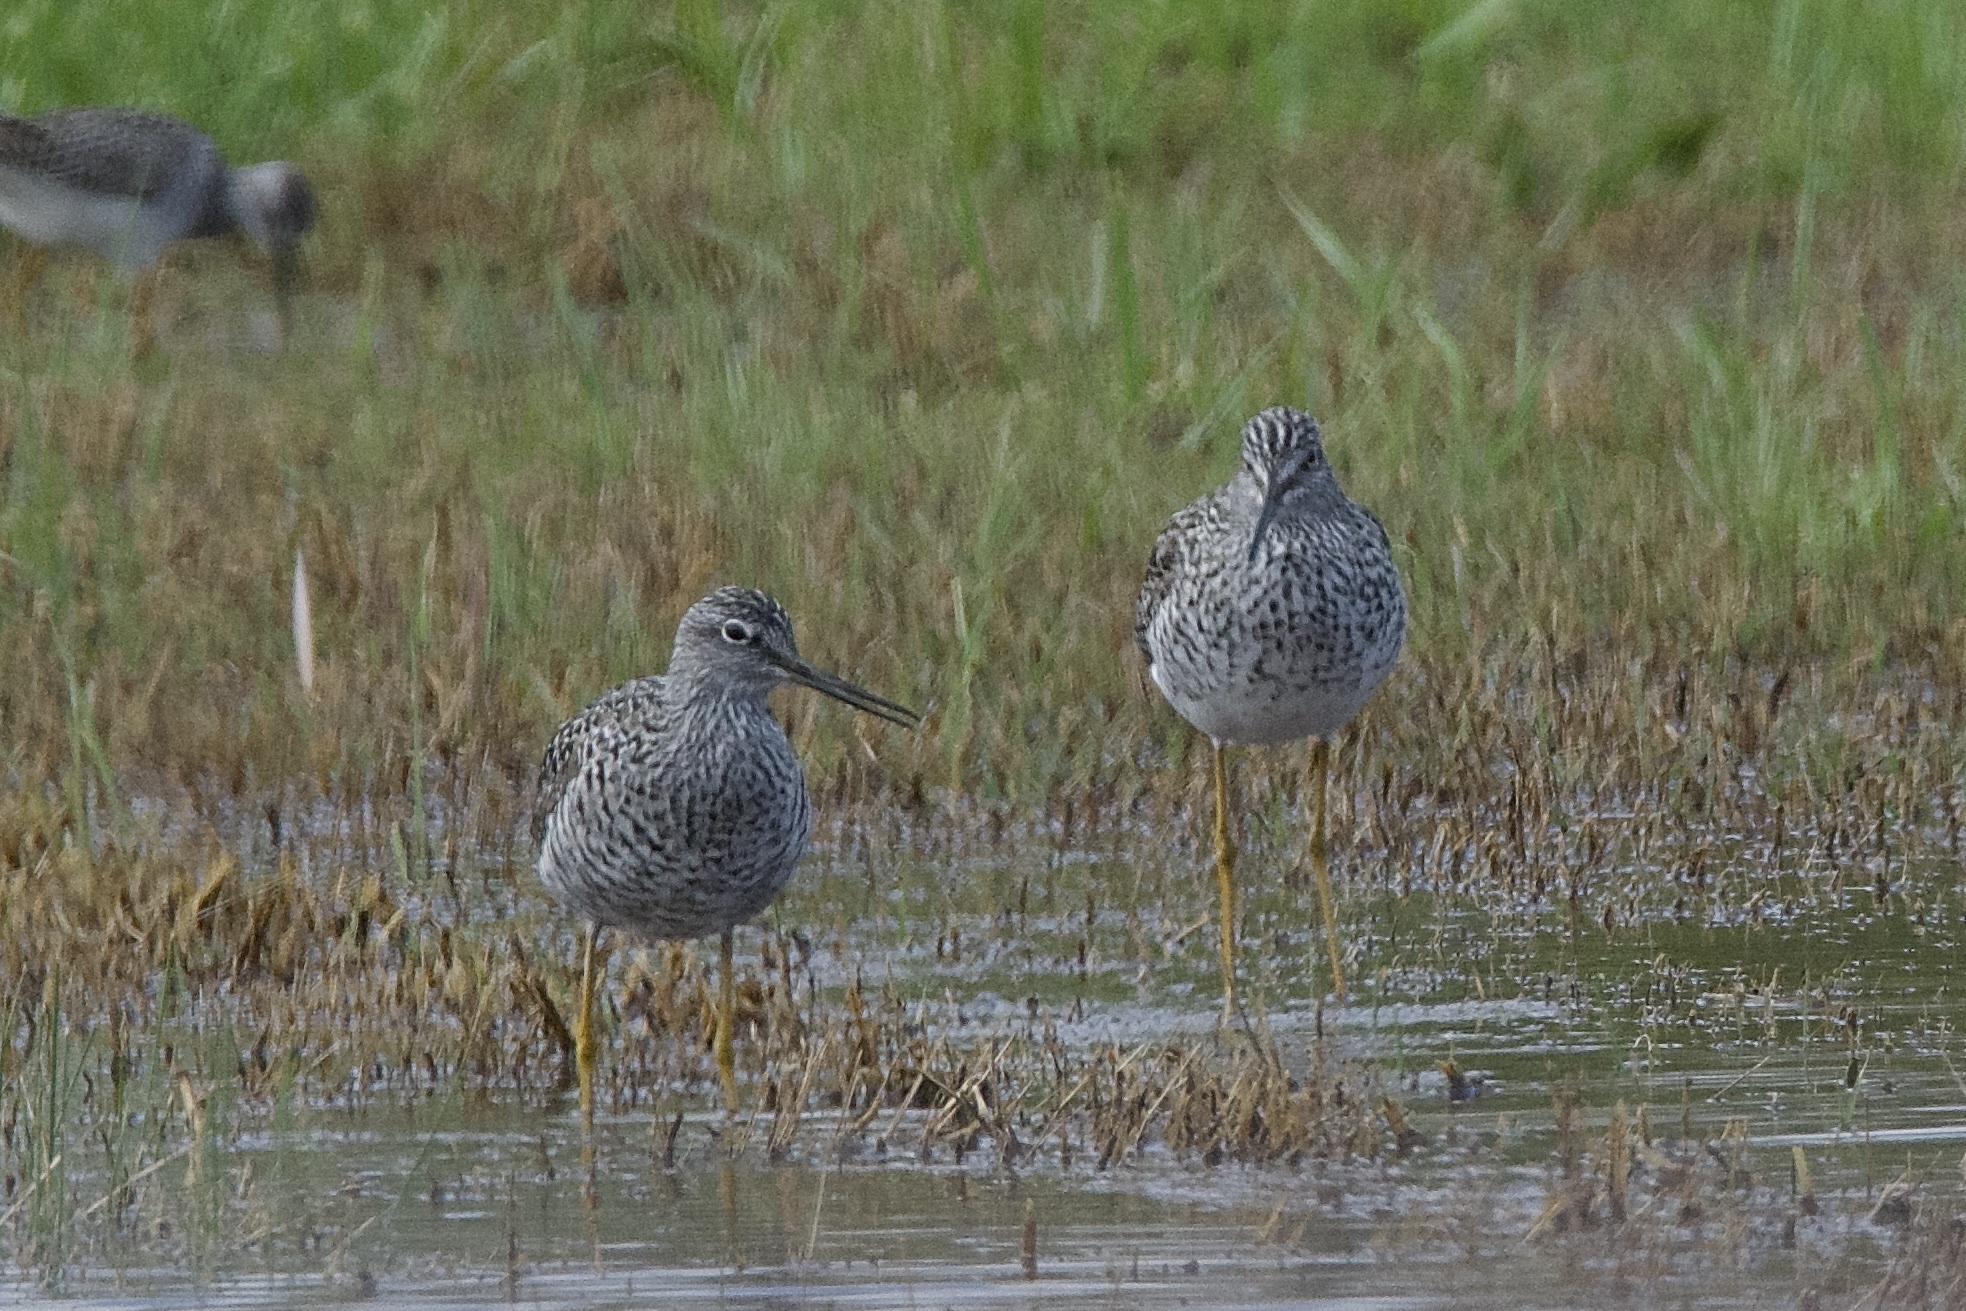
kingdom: Animalia
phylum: Chordata
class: Aves
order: Charadriiformes
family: Scolopacidae
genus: Tringa
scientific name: Tringa melanoleuca
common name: Greater yellowlegs
